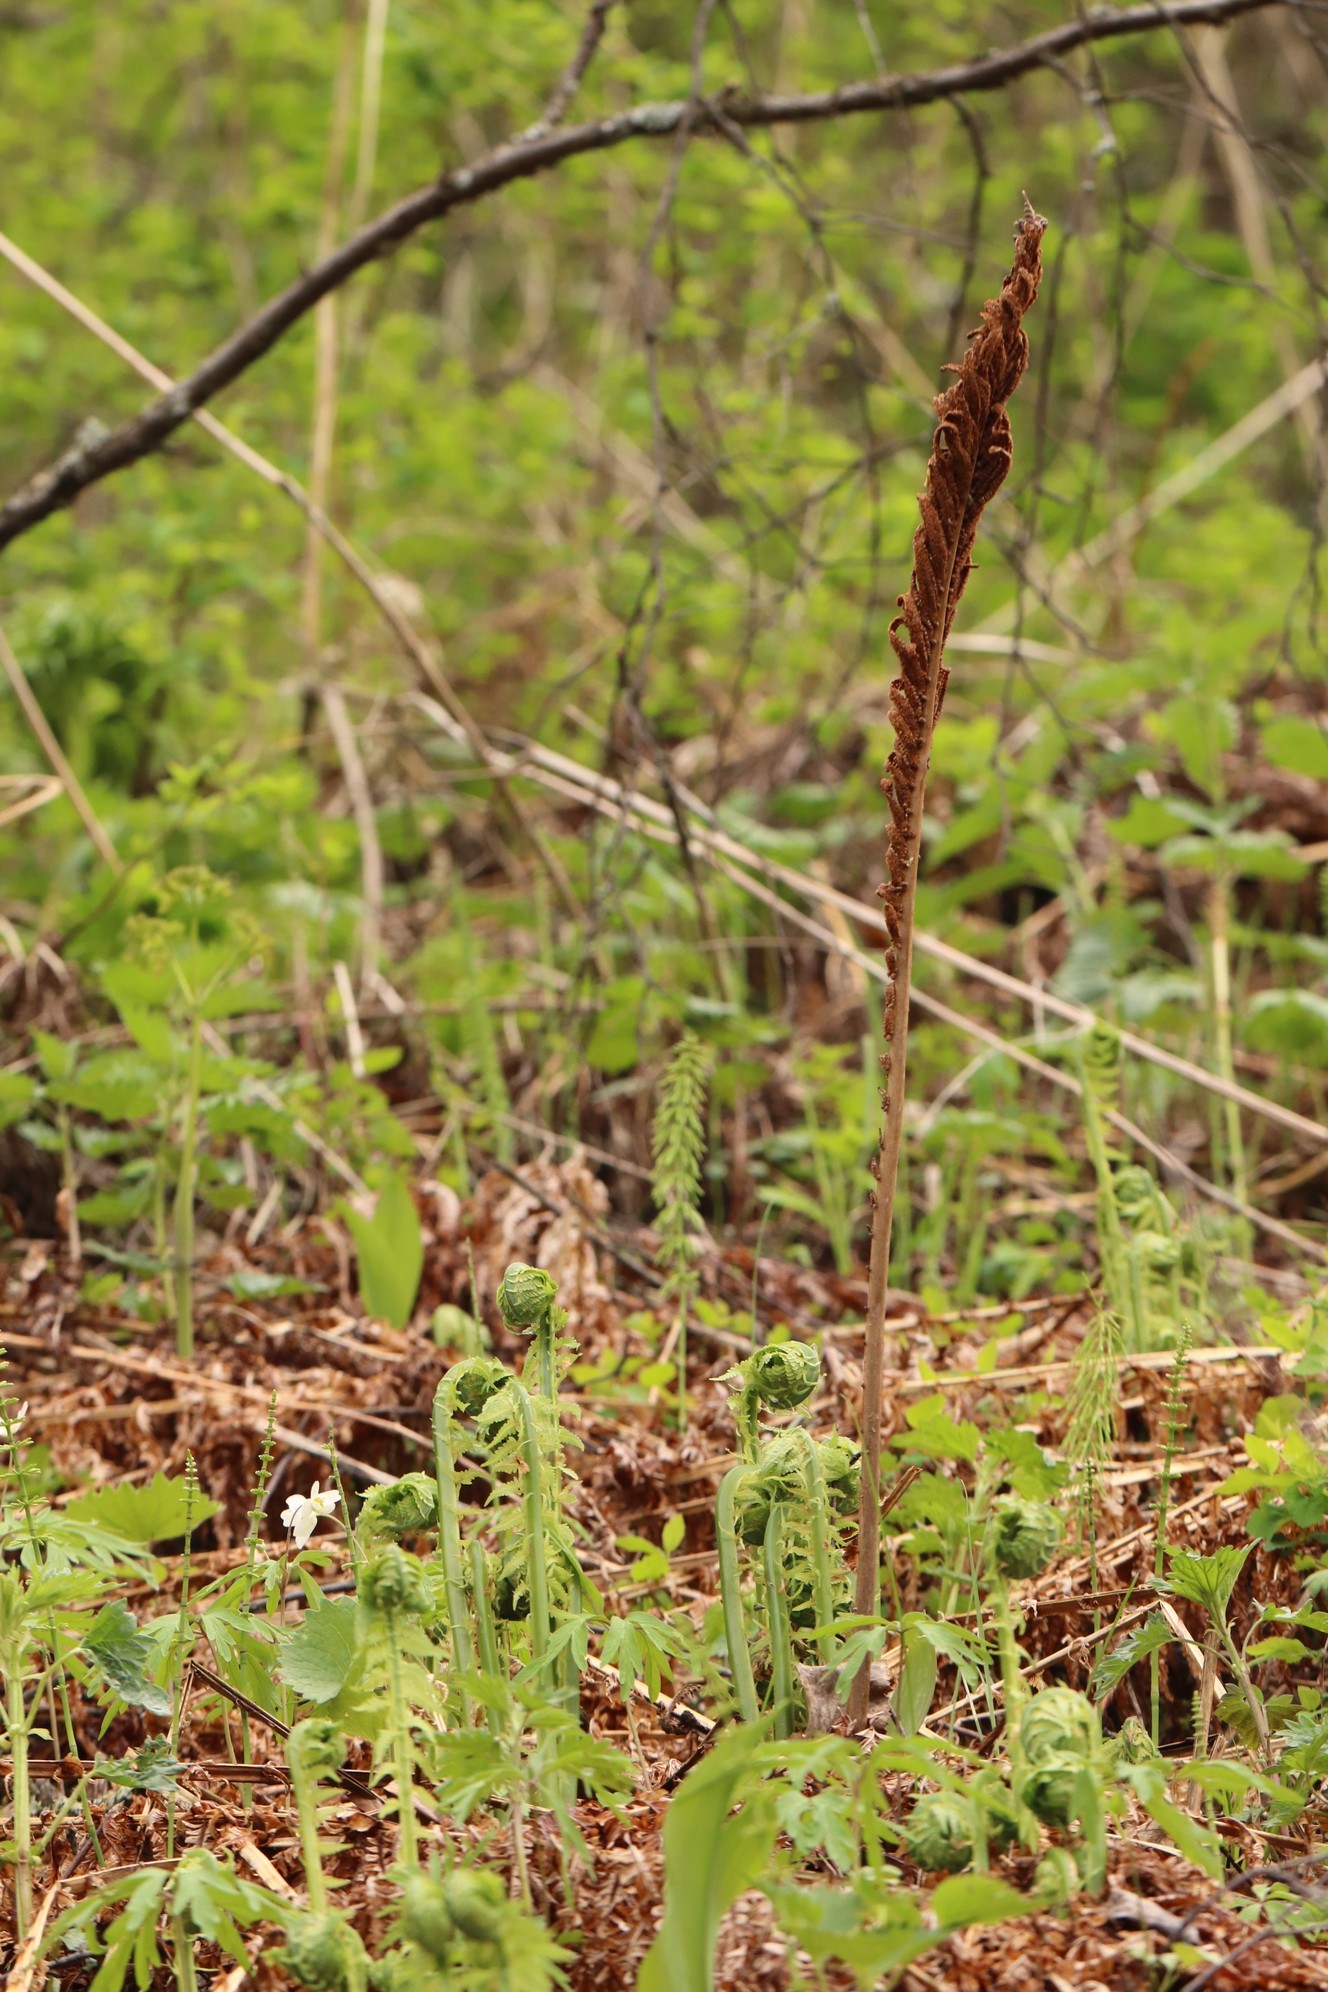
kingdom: Plantae
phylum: Tracheophyta
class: Polypodiopsida
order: Polypodiales
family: Onocleaceae
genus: Matteuccia
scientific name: Matteuccia struthiopteris
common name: Ostrich fern
